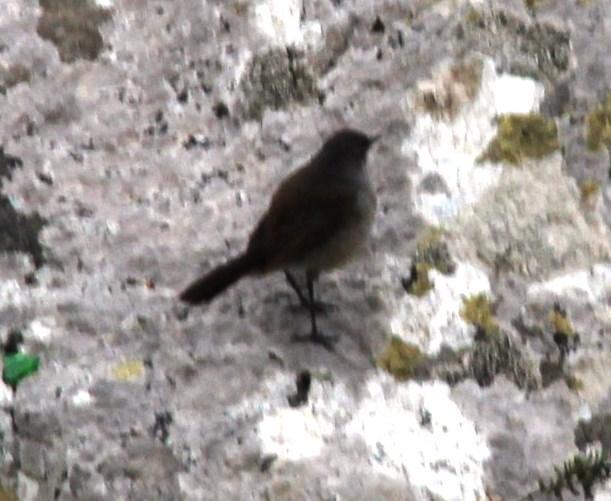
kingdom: Animalia
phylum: Chordata
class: Aves
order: Passeriformes
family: Muscicapidae
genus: Erythropygia
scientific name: Erythropygia coryphoeus
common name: Karoo scrub robin
